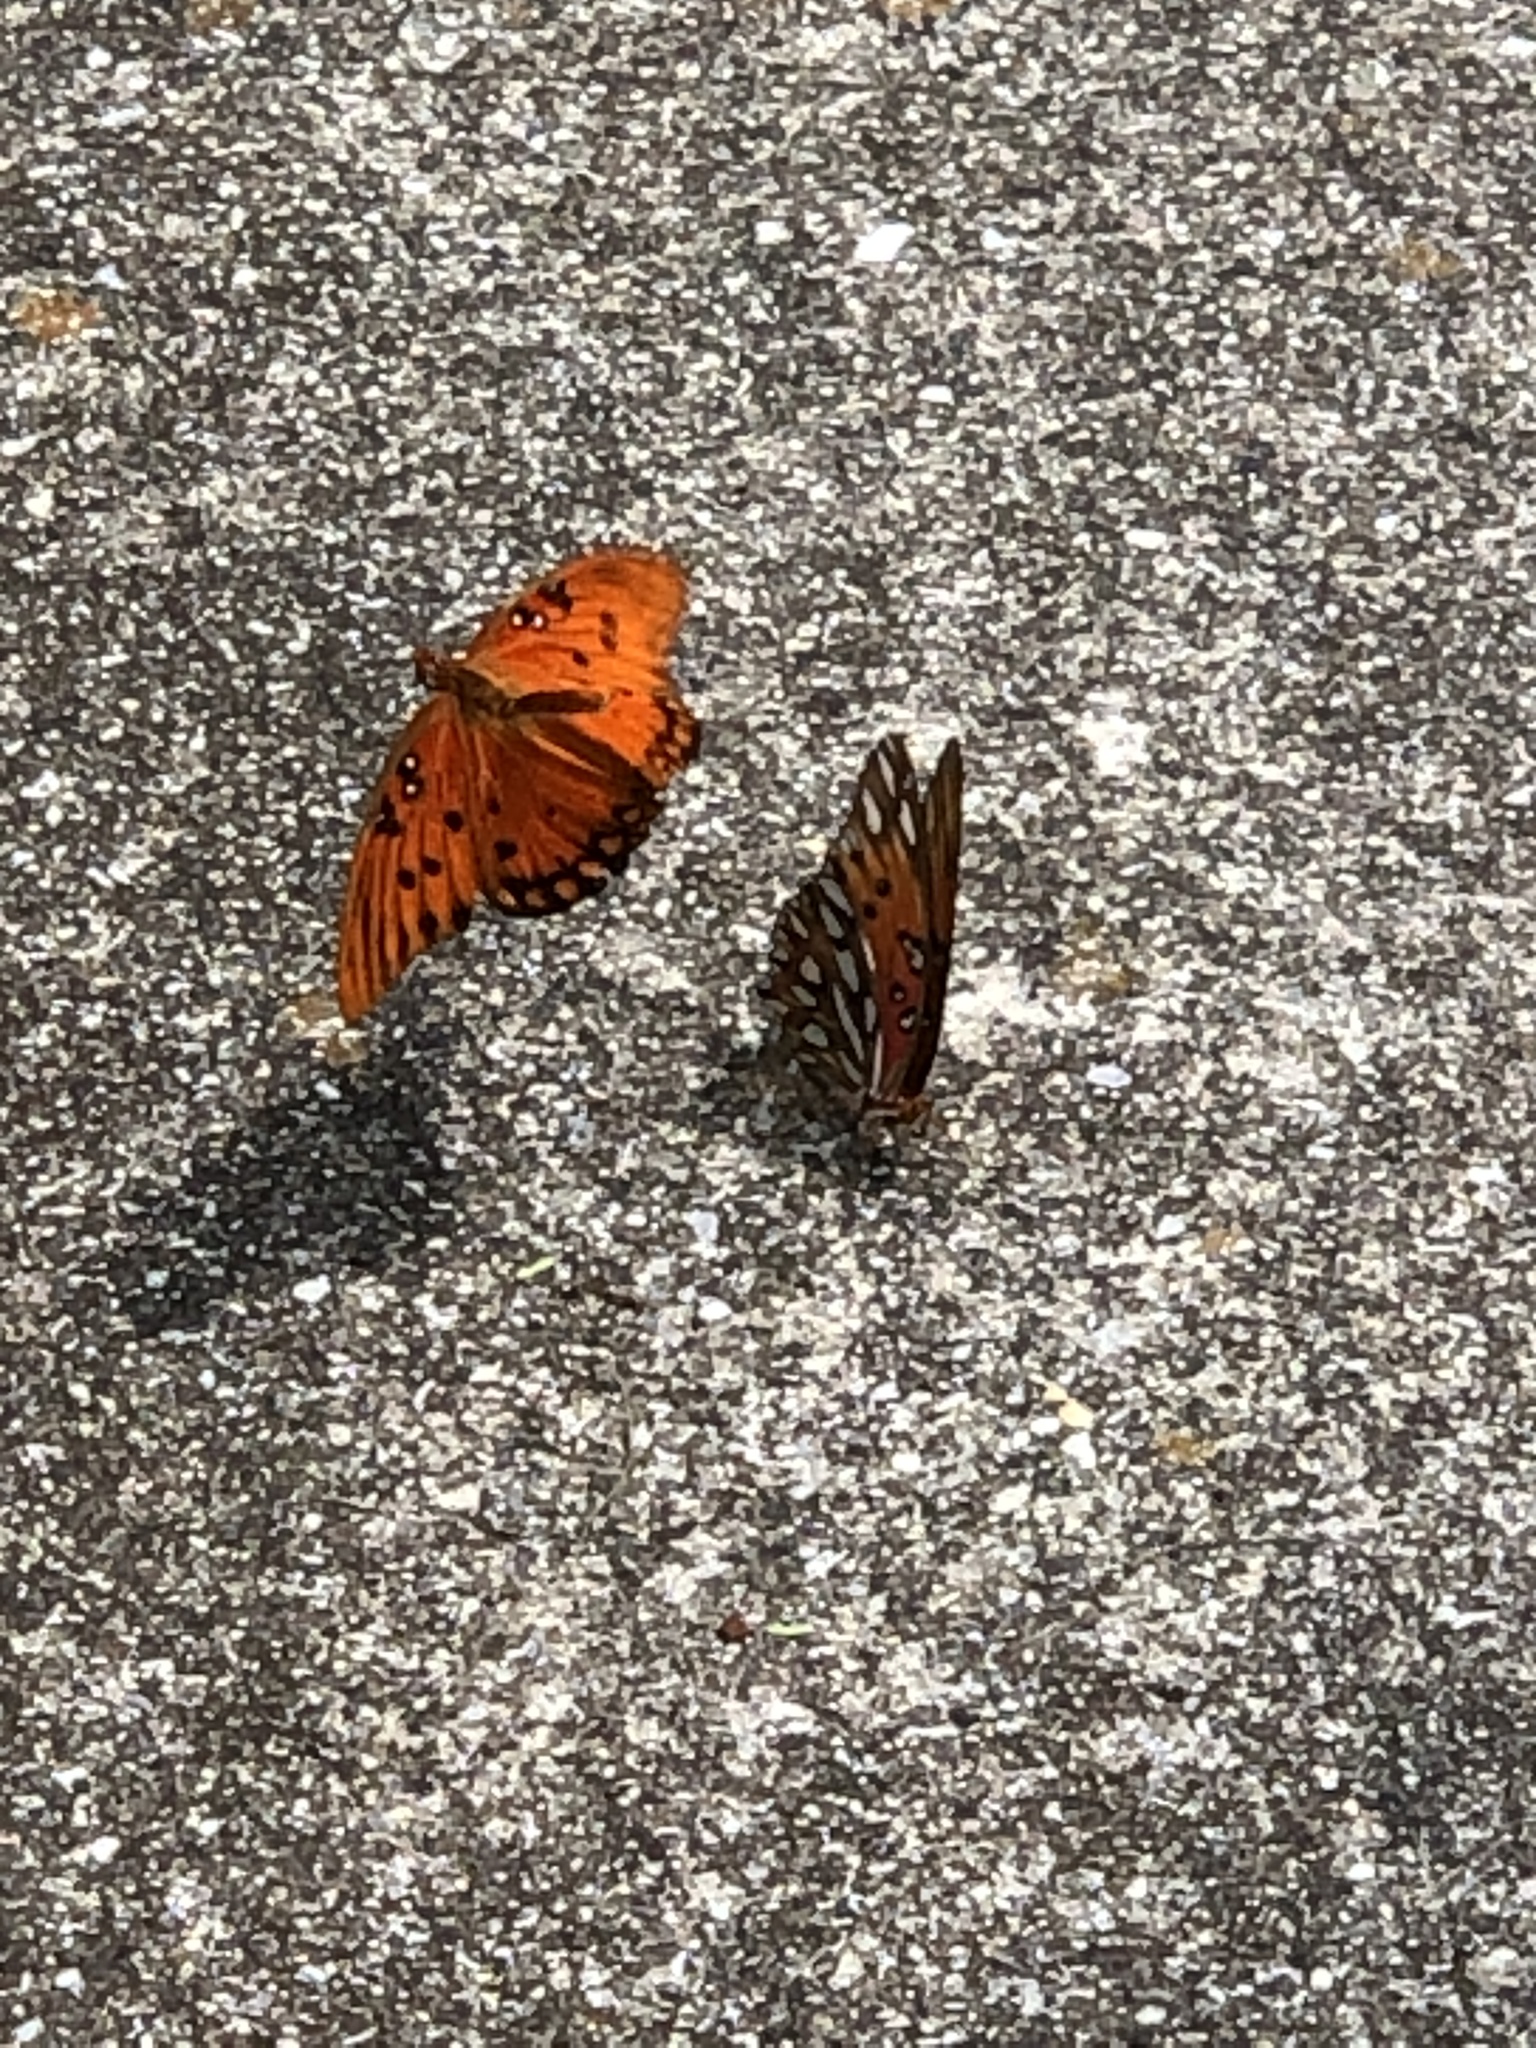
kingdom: Animalia
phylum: Arthropoda
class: Insecta
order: Lepidoptera
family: Nymphalidae
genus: Dione
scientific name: Dione vanillae
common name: Gulf fritillary
